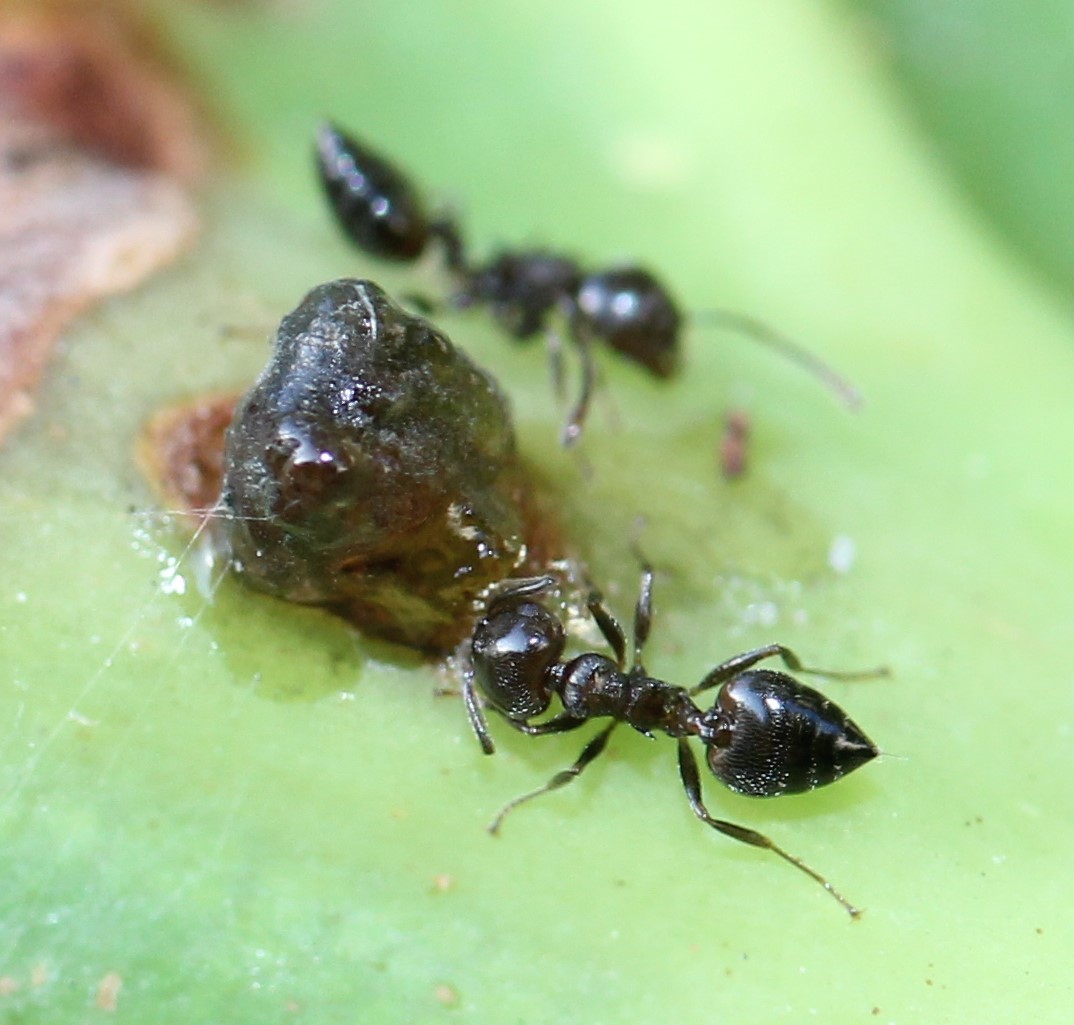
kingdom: Animalia
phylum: Arthropoda
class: Insecta
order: Hymenoptera
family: Formicidae
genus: Crematogaster
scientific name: Crematogaster ashmeadi
